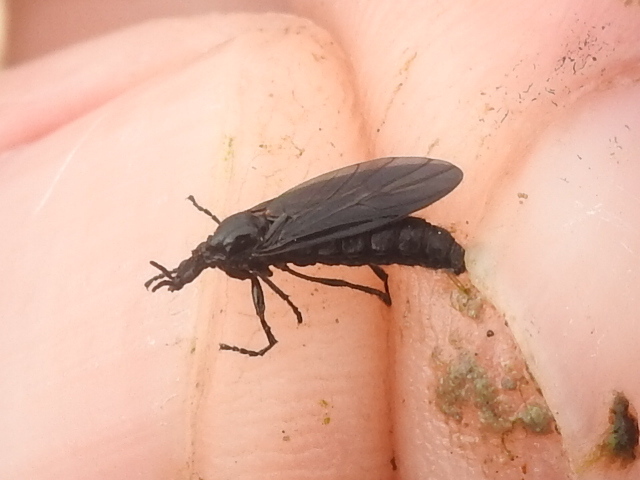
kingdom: Animalia
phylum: Arthropoda
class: Insecta
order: Diptera
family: Bibionidae
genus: Dilophus
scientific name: Dilophus orbatus
